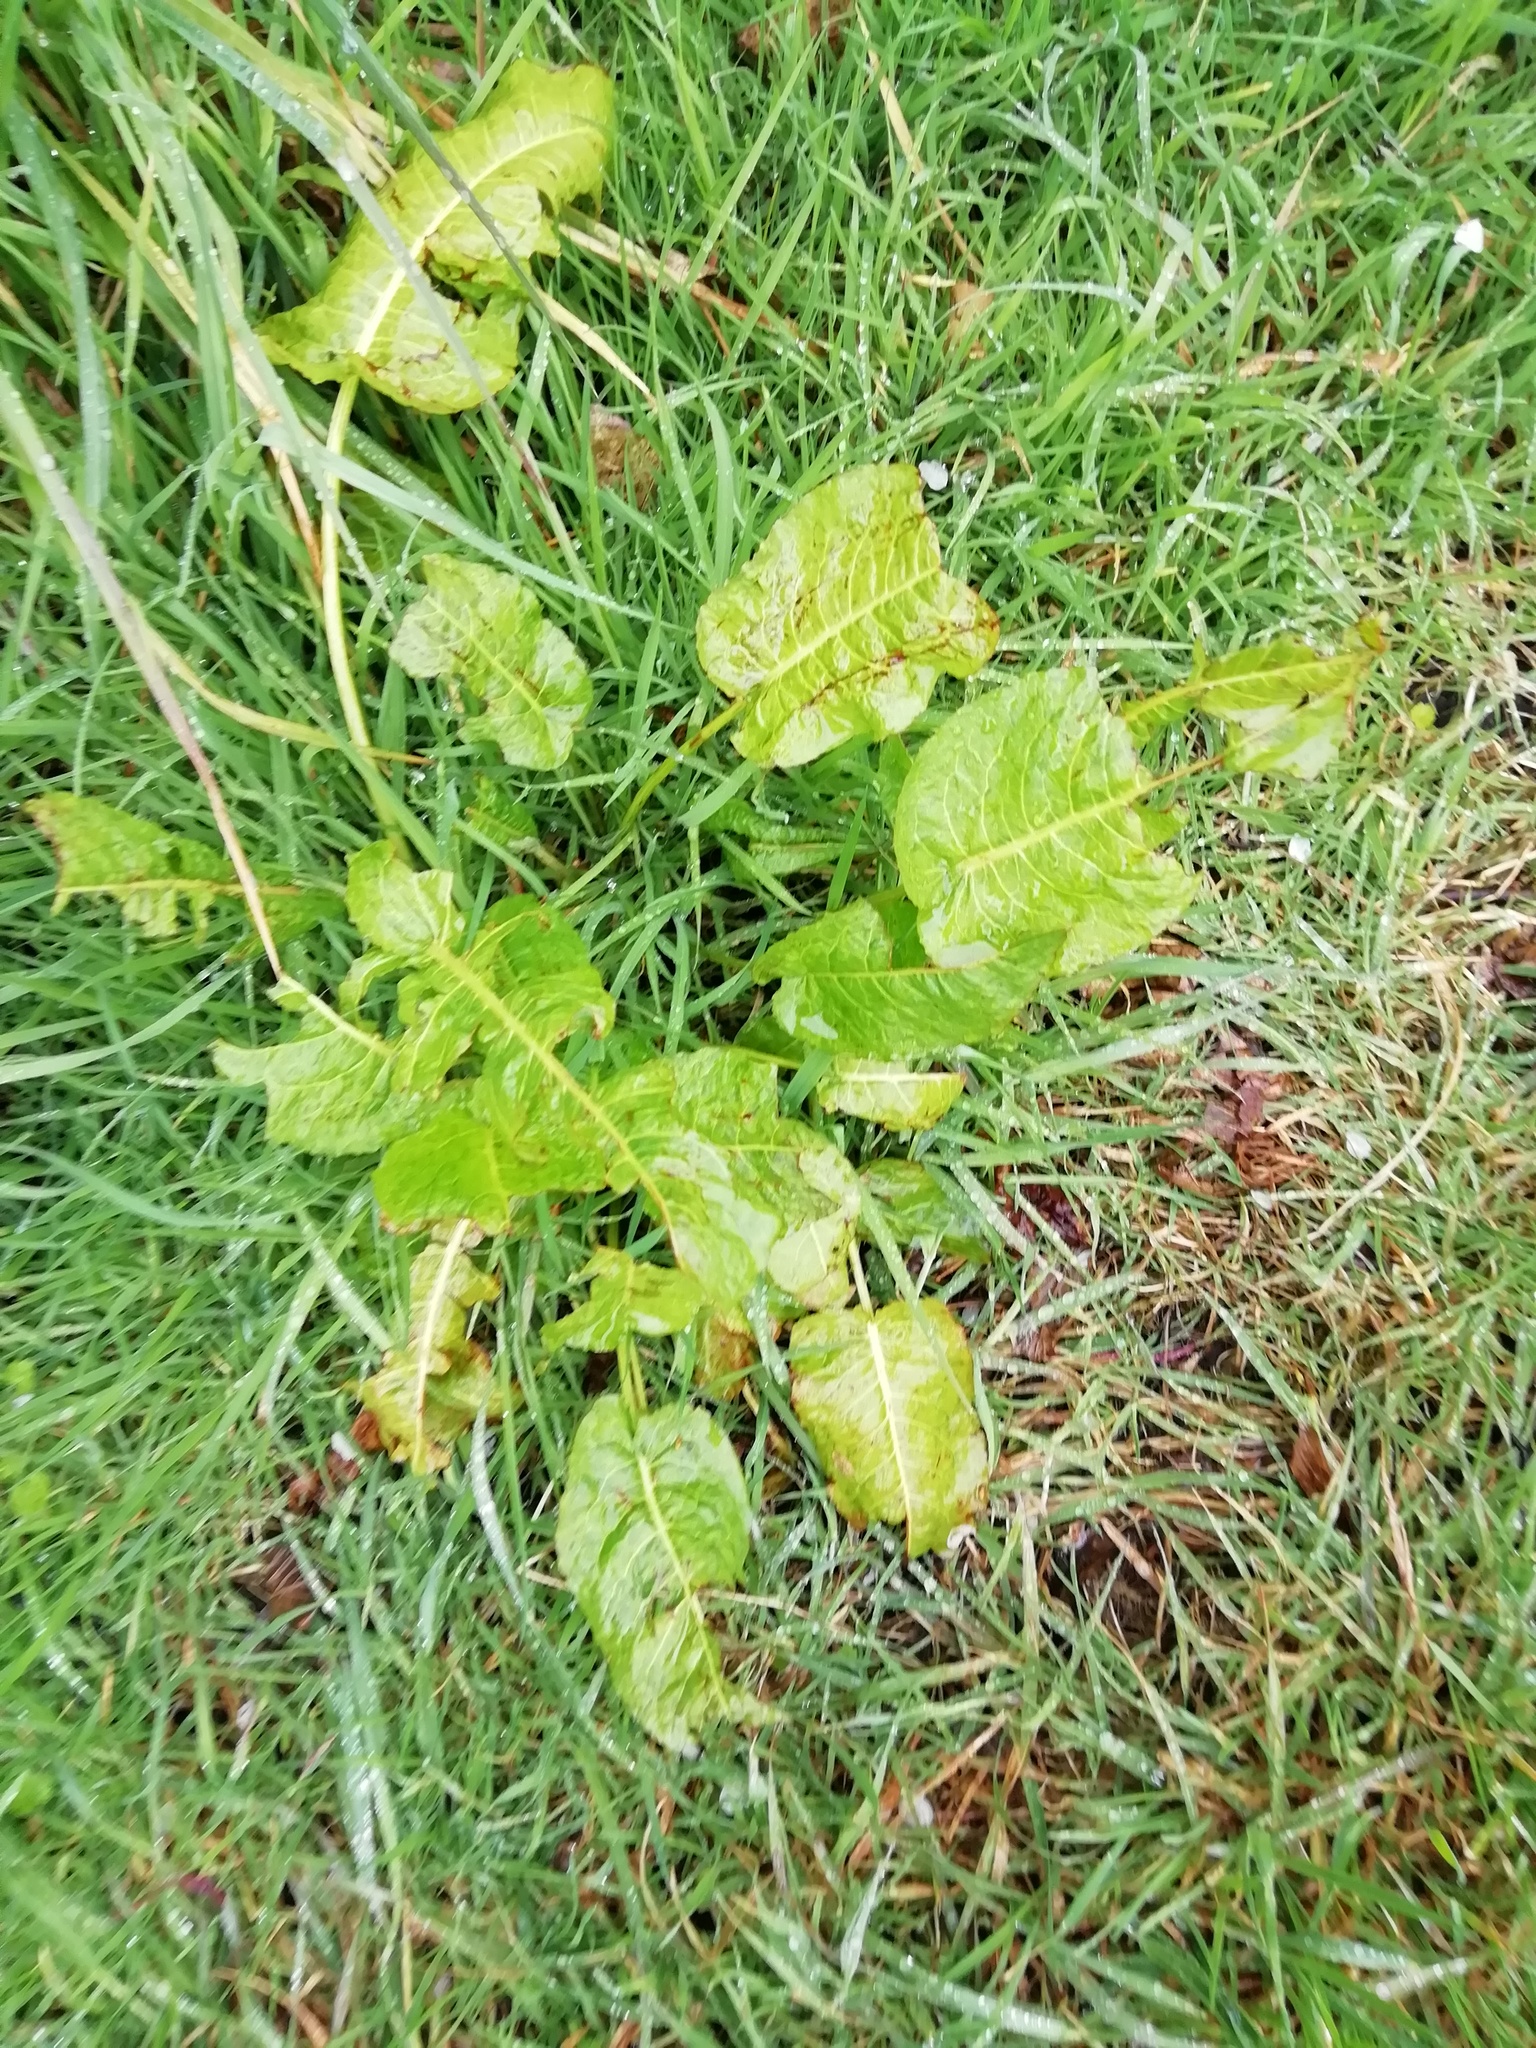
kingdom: Plantae
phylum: Tracheophyta
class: Magnoliopsida
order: Caryophyllales
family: Polygonaceae
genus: Rumex
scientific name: Rumex obtusifolius
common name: Bitter dock
